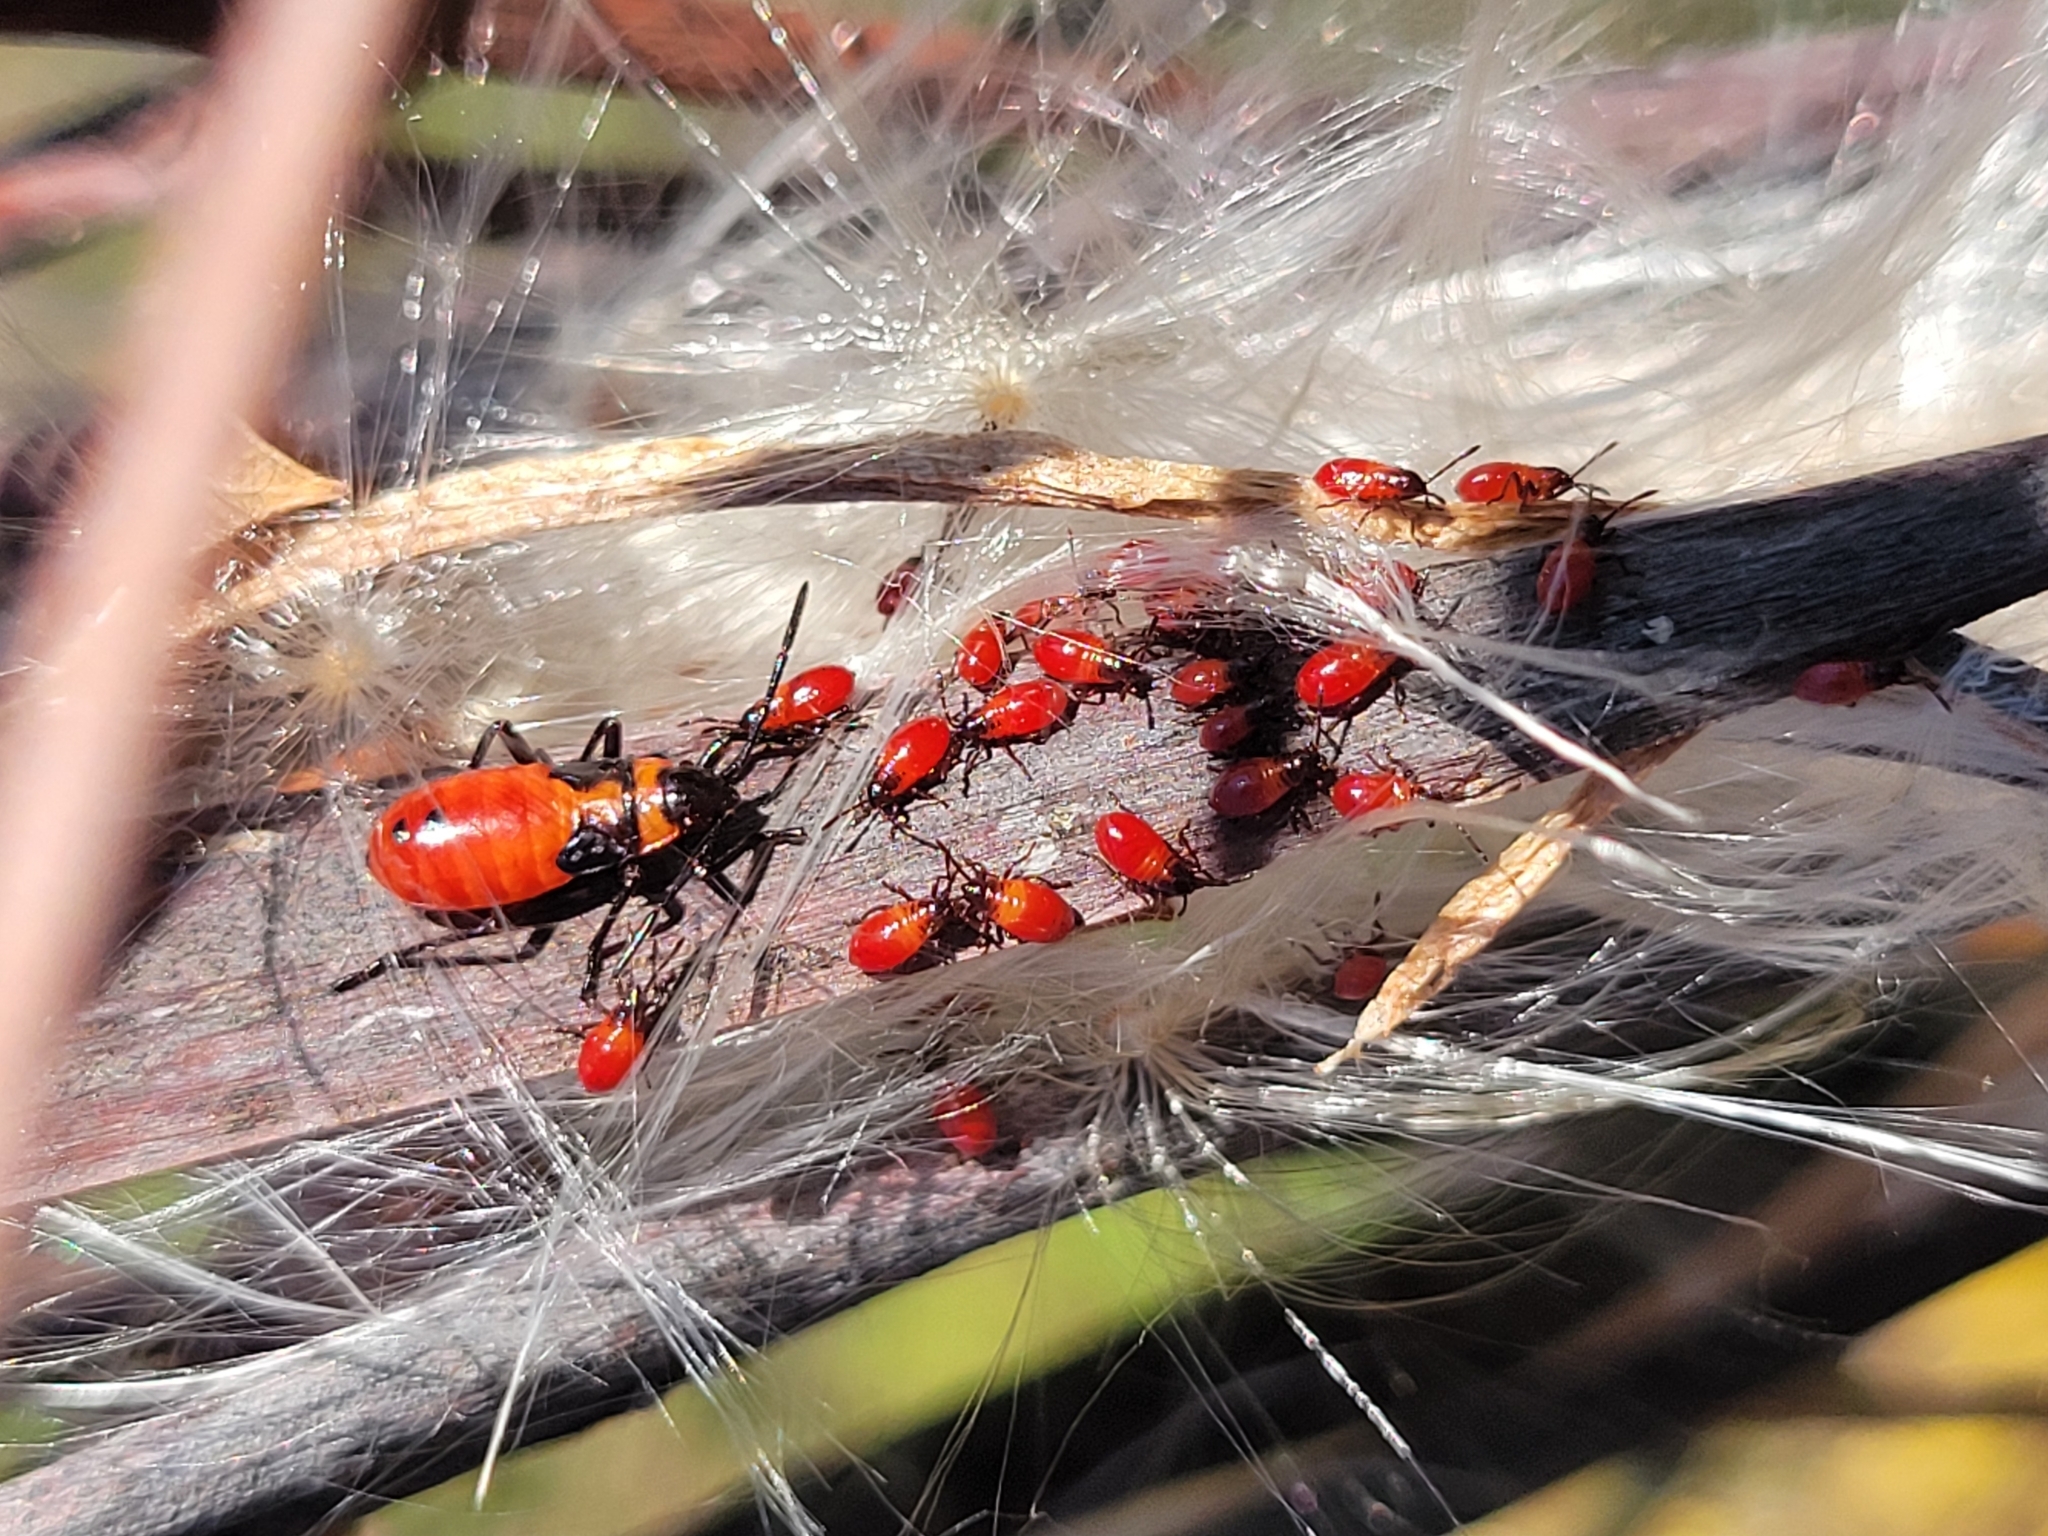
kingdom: Animalia
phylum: Arthropoda
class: Insecta
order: Hemiptera
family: Lygaeidae
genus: Oncopeltus
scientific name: Oncopeltus fasciatus
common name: Large milkweed bug
